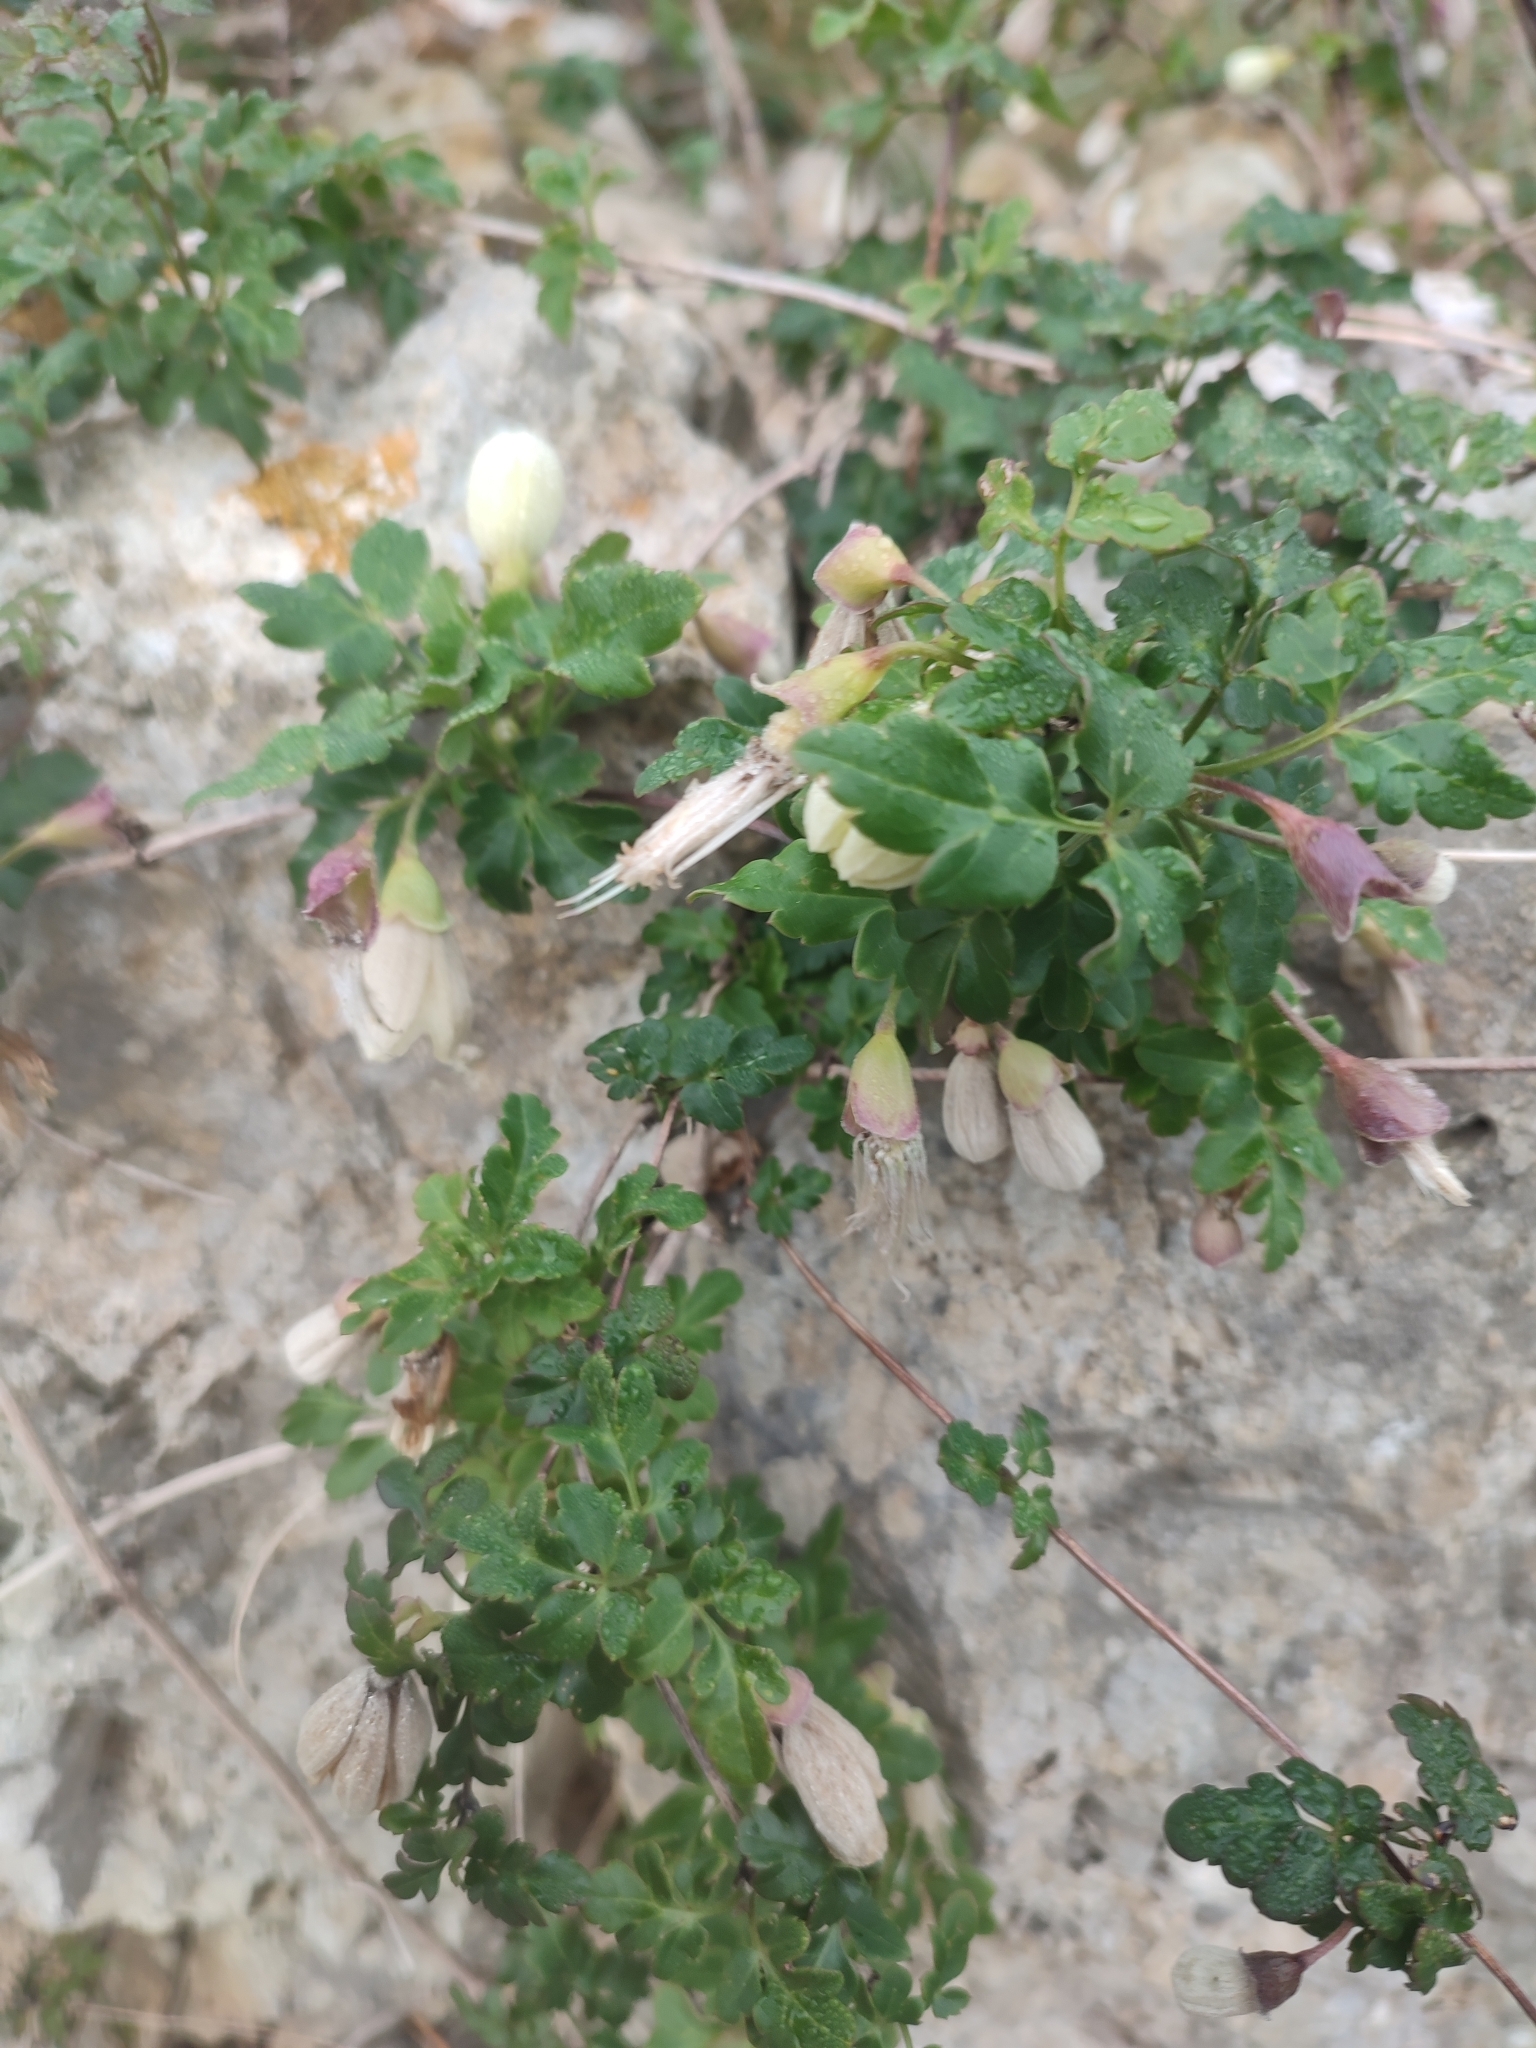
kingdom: Plantae
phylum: Tracheophyta
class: Magnoliopsida
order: Ranunculales
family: Ranunculaceae
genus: Clematis
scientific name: Clematis cirrhosa
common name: Early virgin's-bower
